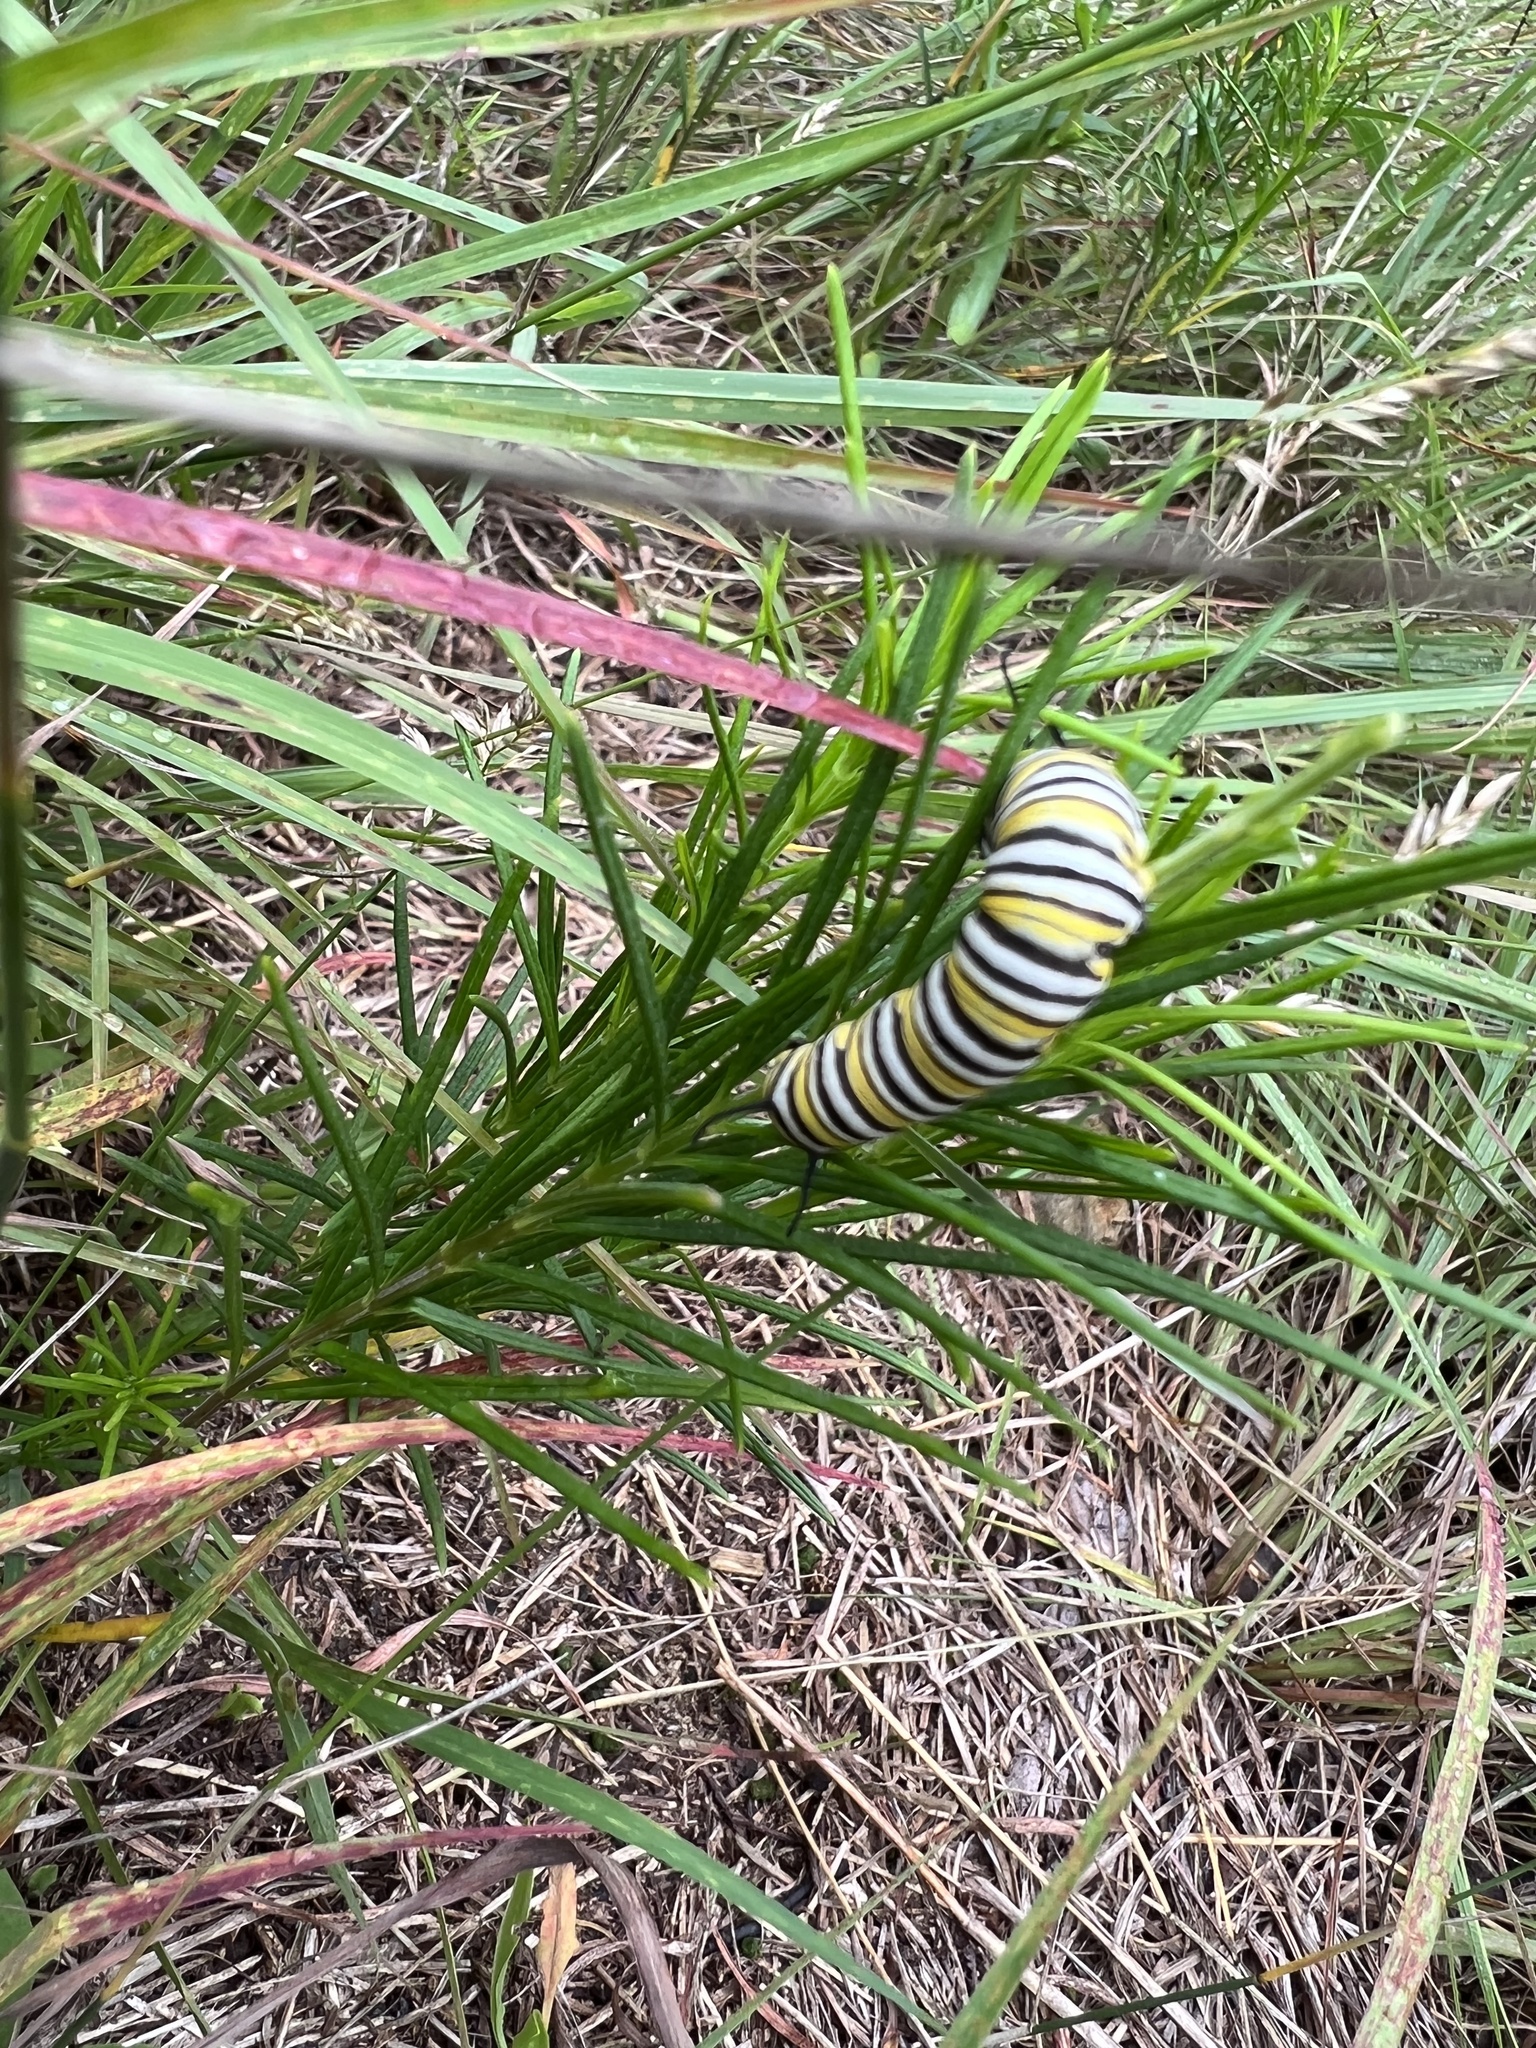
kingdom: Animalia
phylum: Arthropoda
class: Insecta
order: Lepidoptera
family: Nymphalidae
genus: Danaus
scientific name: Danaus plexippus
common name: Monarch
